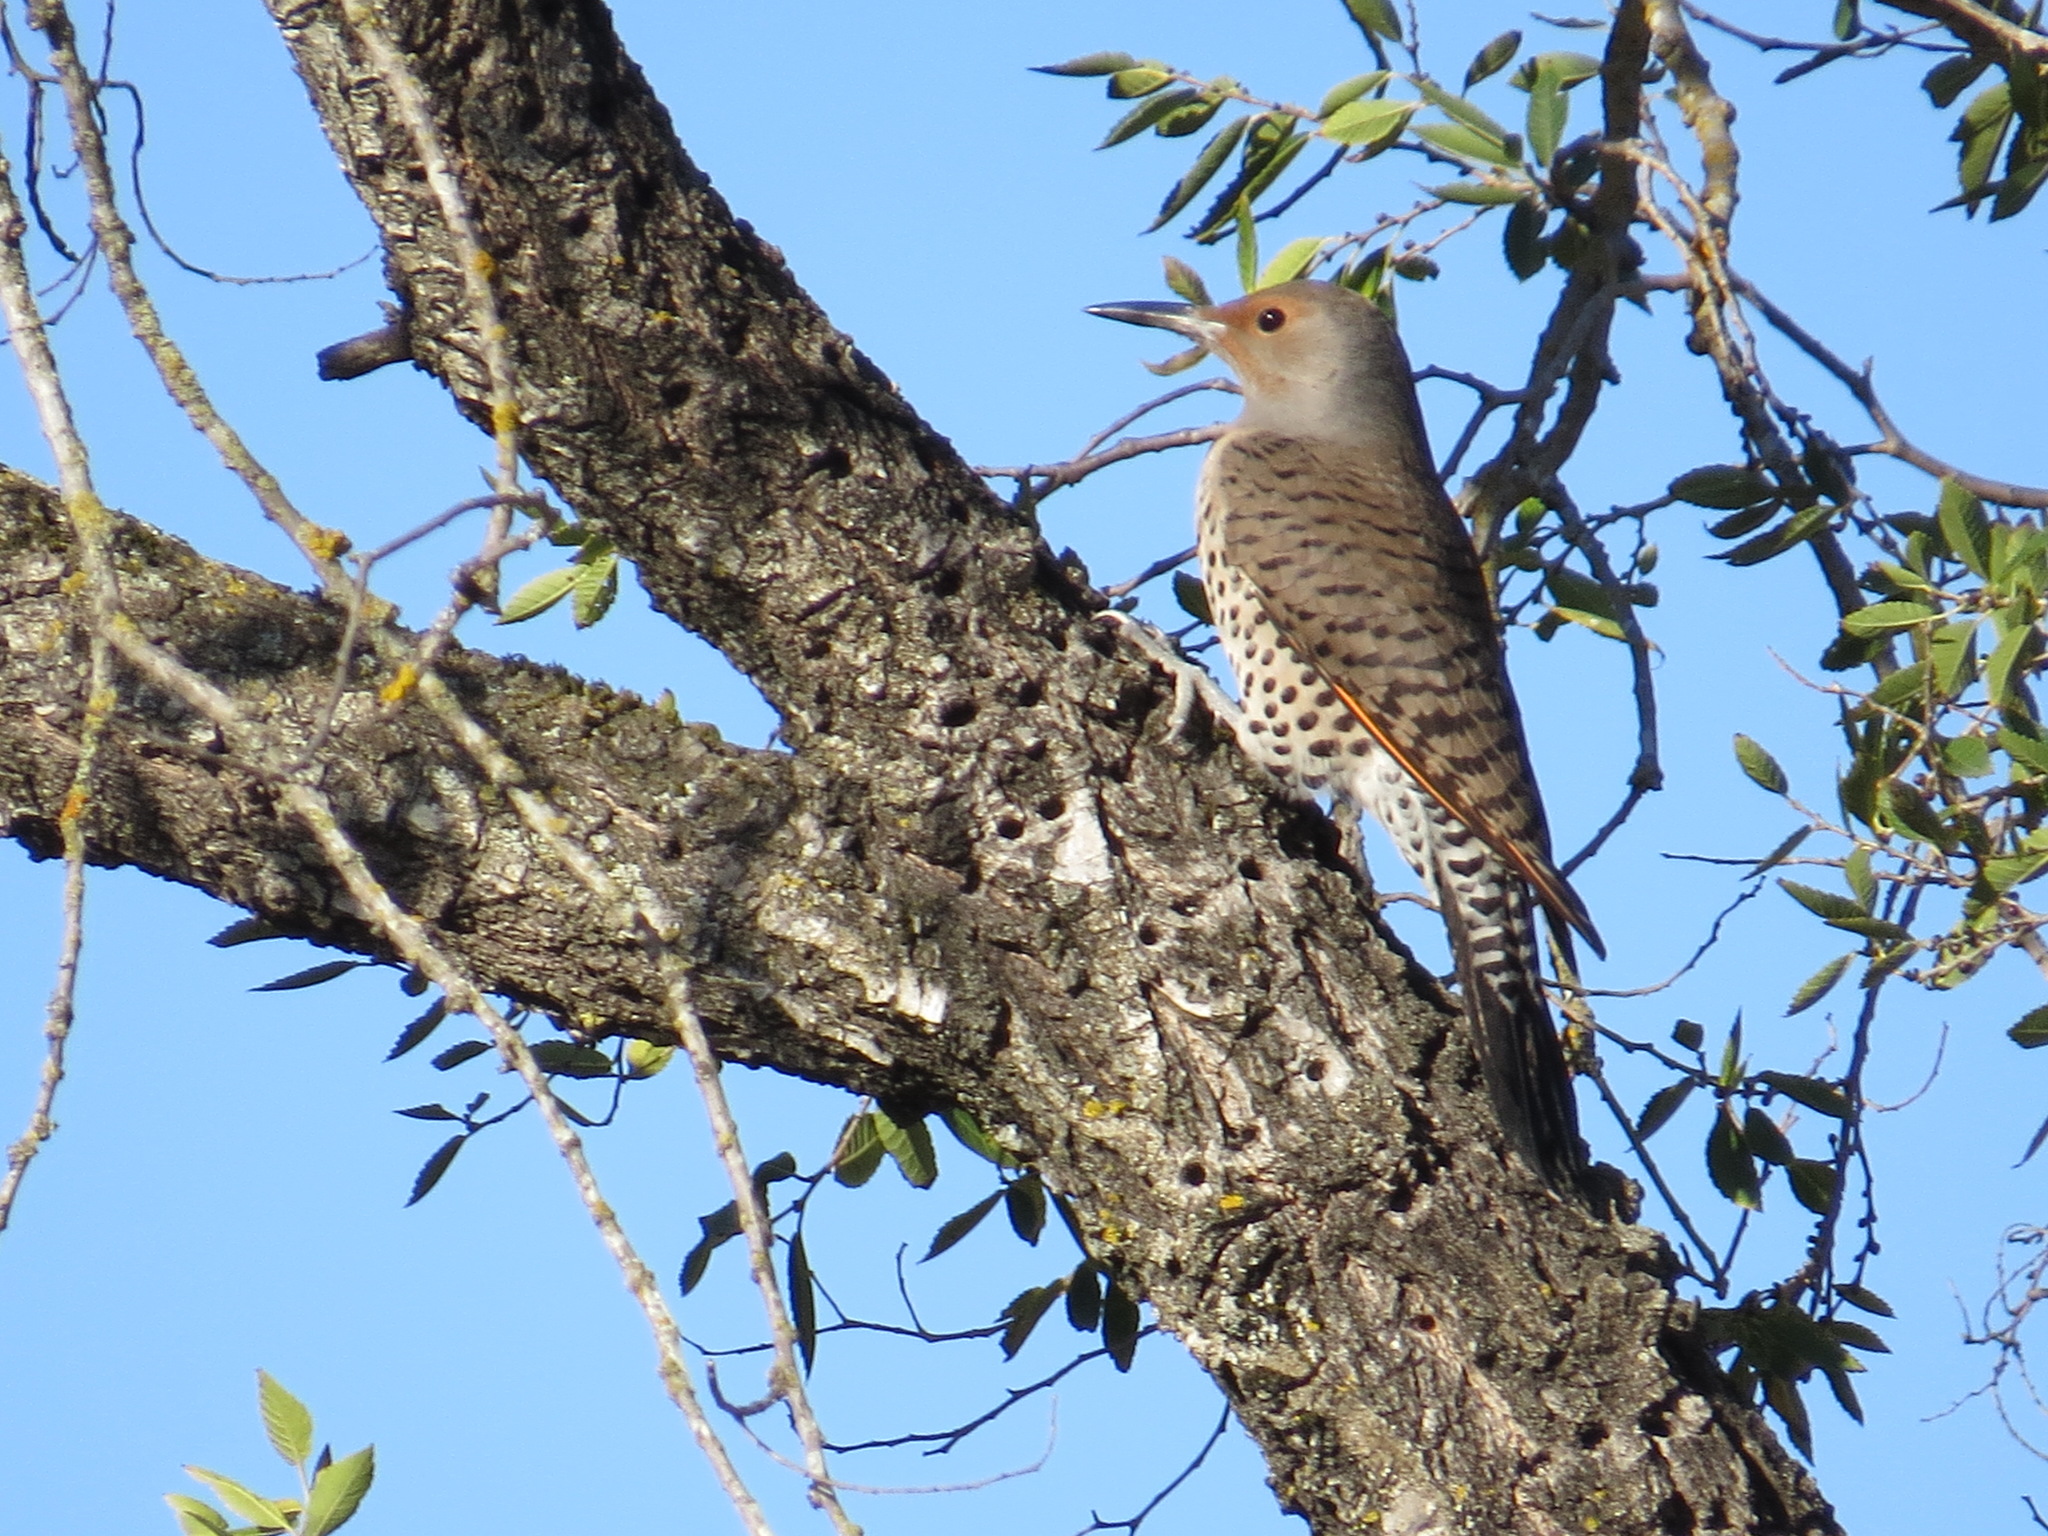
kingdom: Animalia
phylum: Chordata
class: Aves
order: Piciformes
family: Picidae
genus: Colaptes
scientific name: Colaptes auratus
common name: Northern flicker
